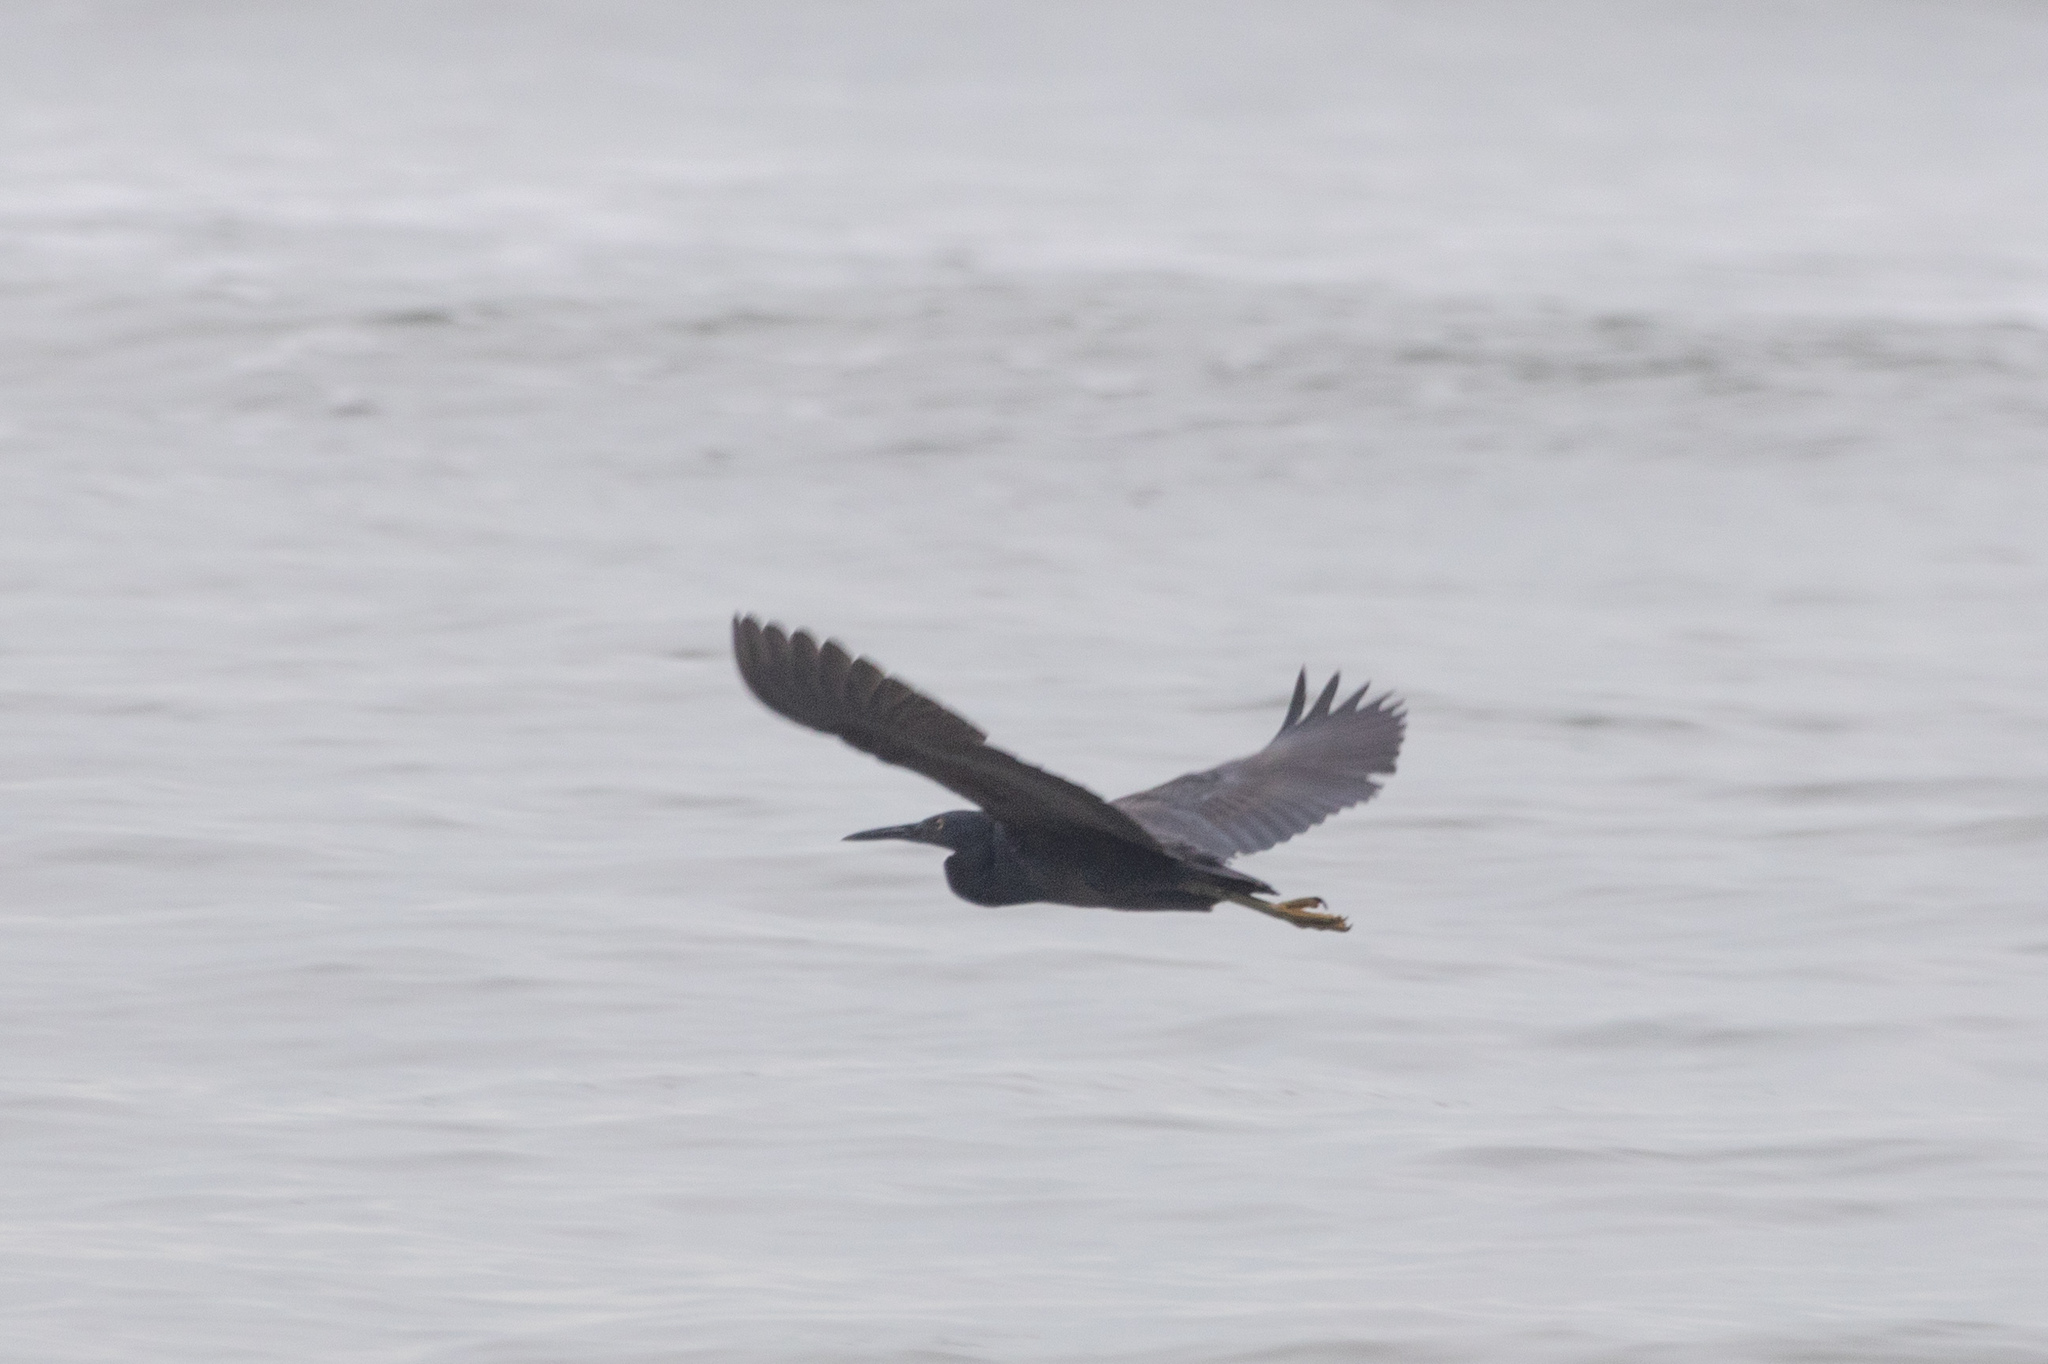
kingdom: Animalia
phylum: Chordata
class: Aves
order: Pelecaniformes
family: Ardeidae
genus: Egretta
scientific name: Egretta sacra
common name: Pacific reef heron
